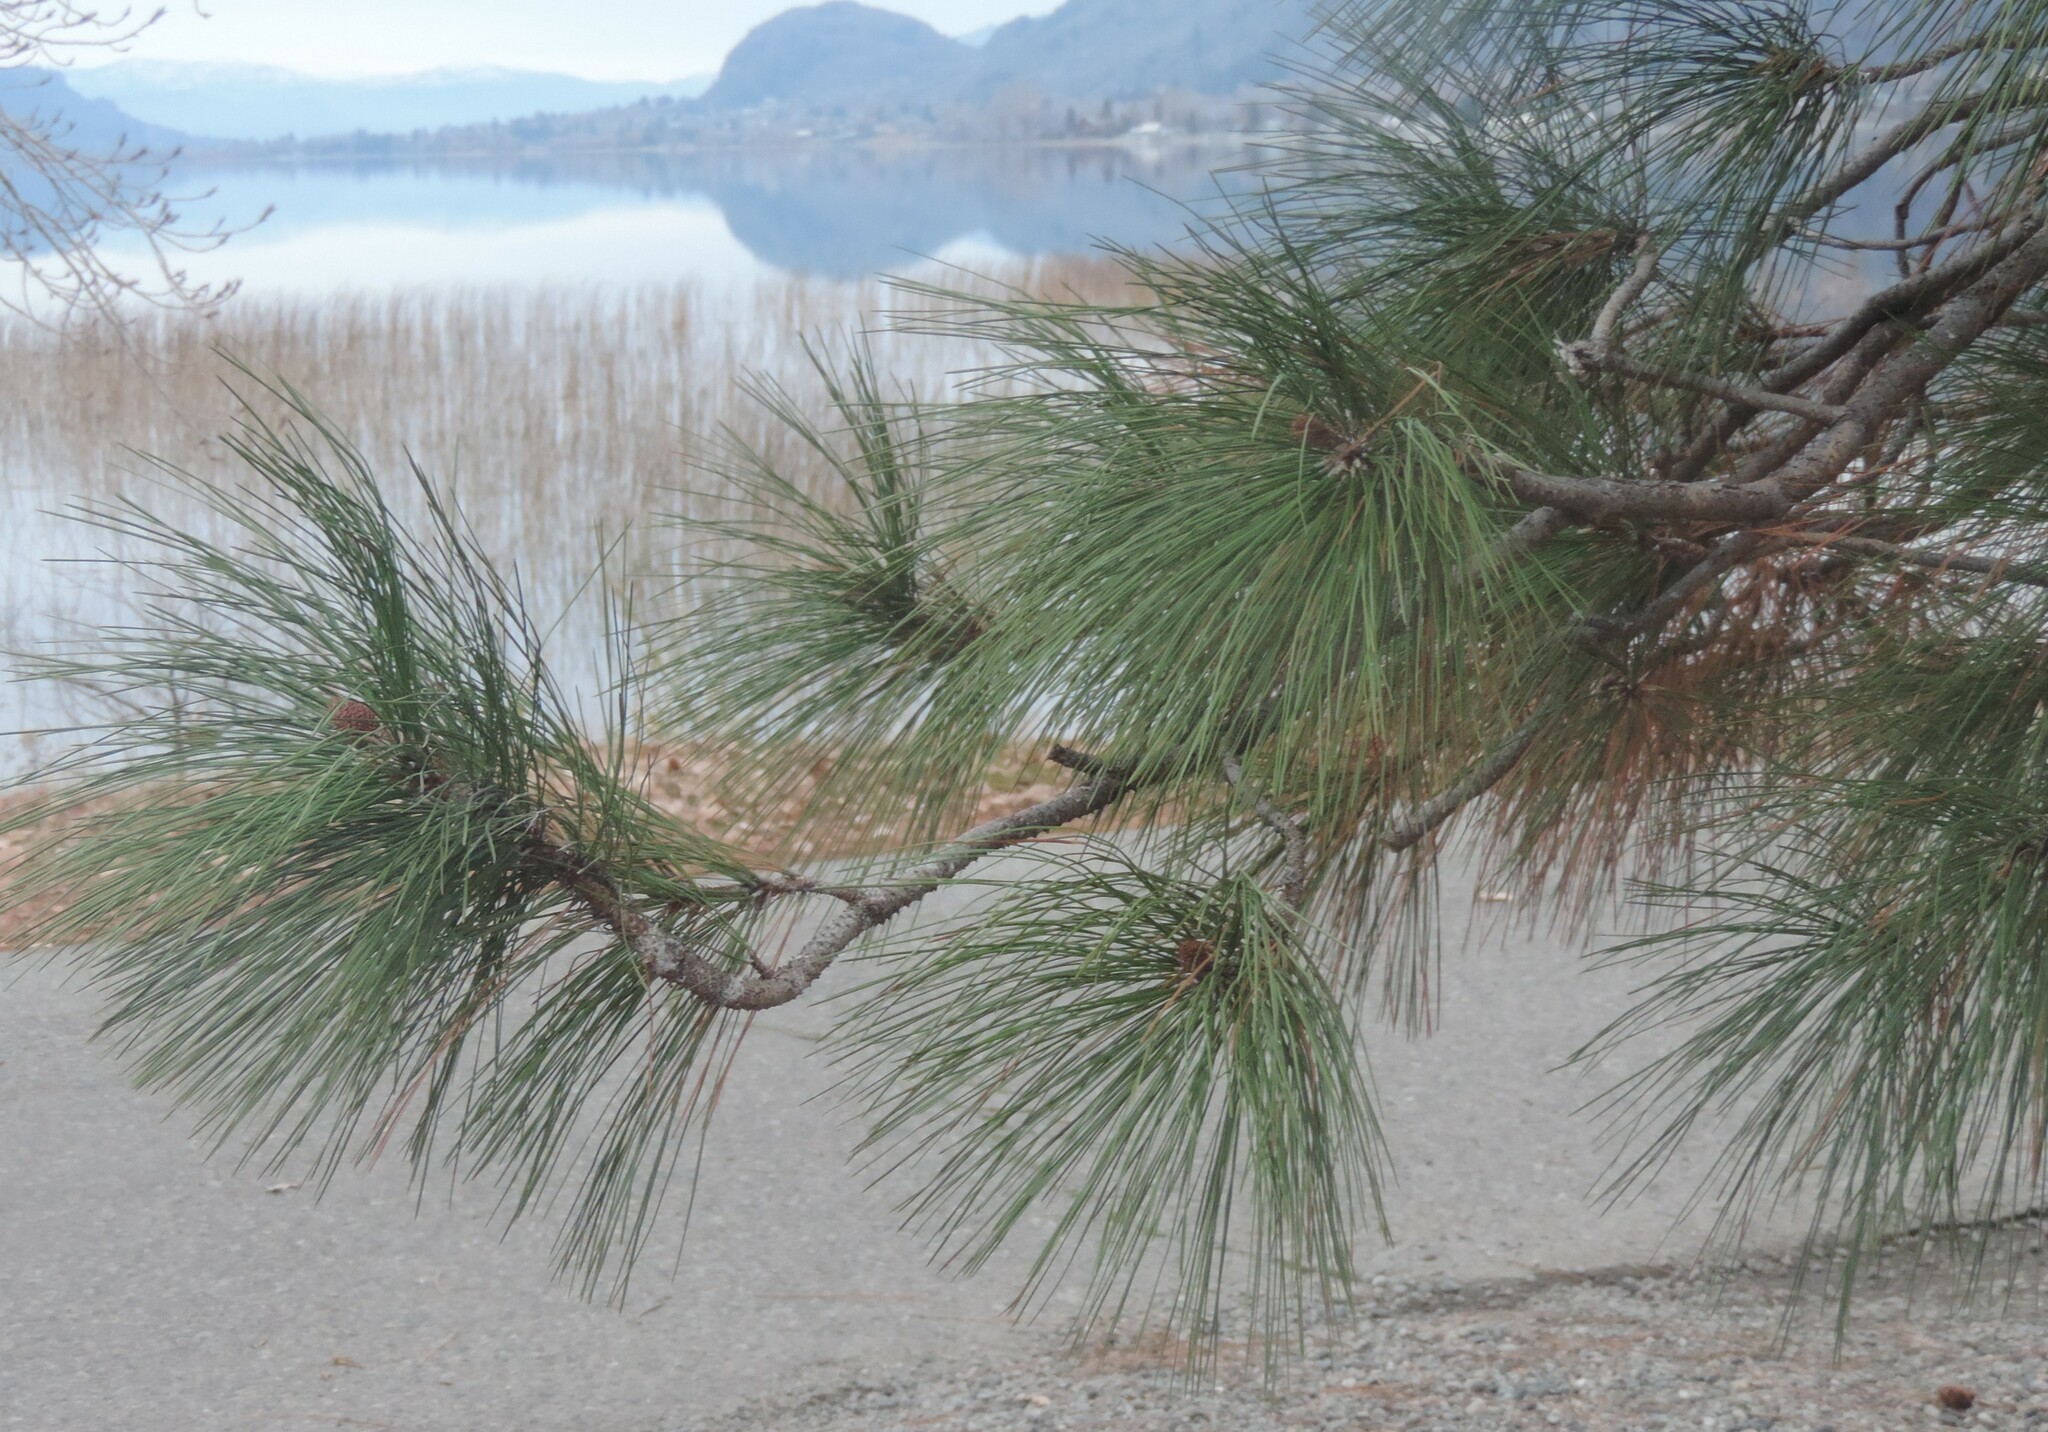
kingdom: Plantae
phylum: Tracheophyta
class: Pinopsida
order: Pinales
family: Pinaceae
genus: Pinus
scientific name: Pinus ponderosa
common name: Western yellow-pine
